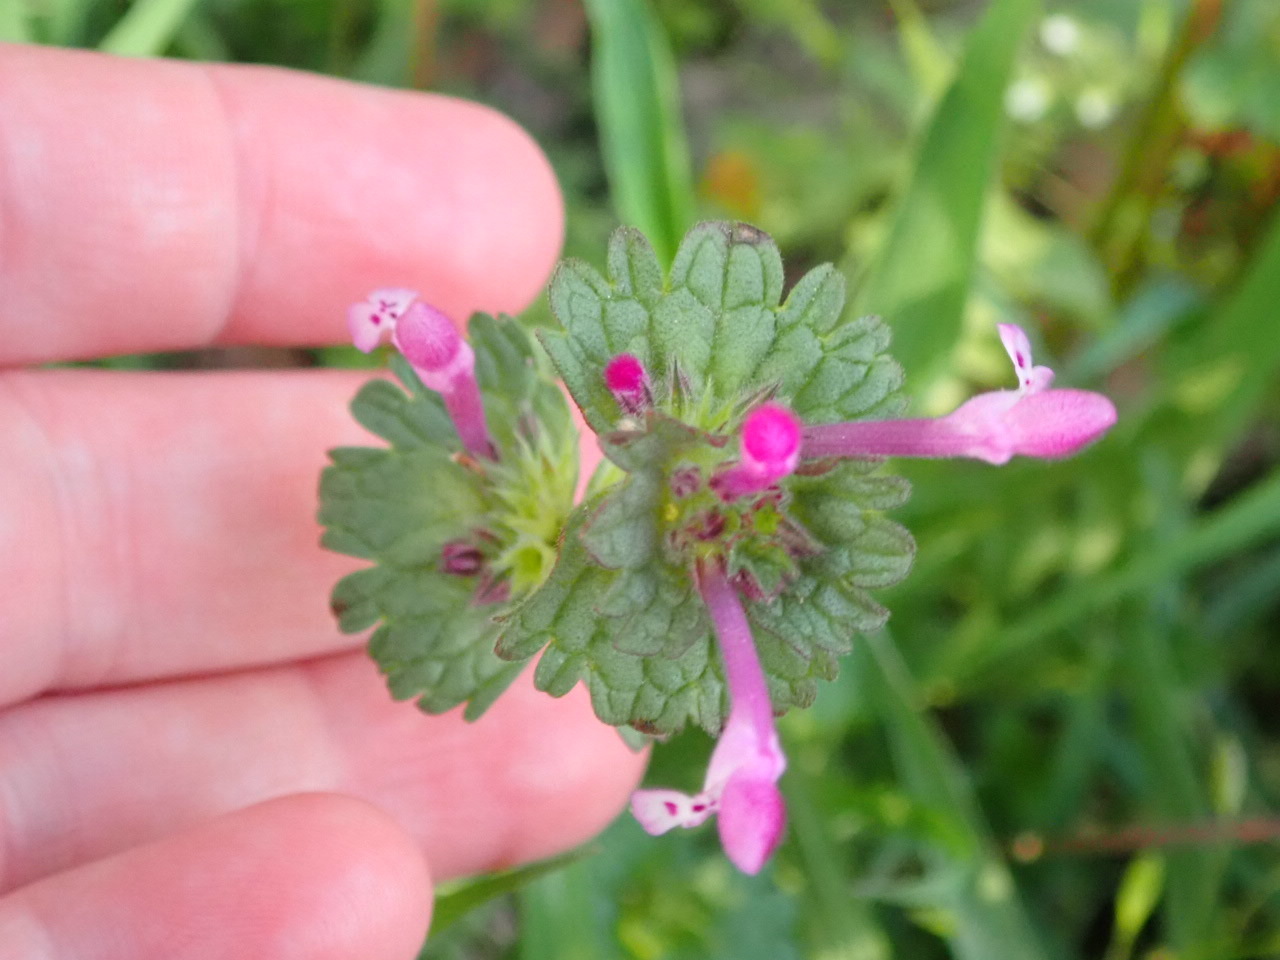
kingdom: Plantae
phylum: Tracheophyta
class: Magnoliopsida
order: Lamiales
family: Lamiaceae
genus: Lamium
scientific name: Lamium amplexicaule
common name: Henbit dead-nettle
